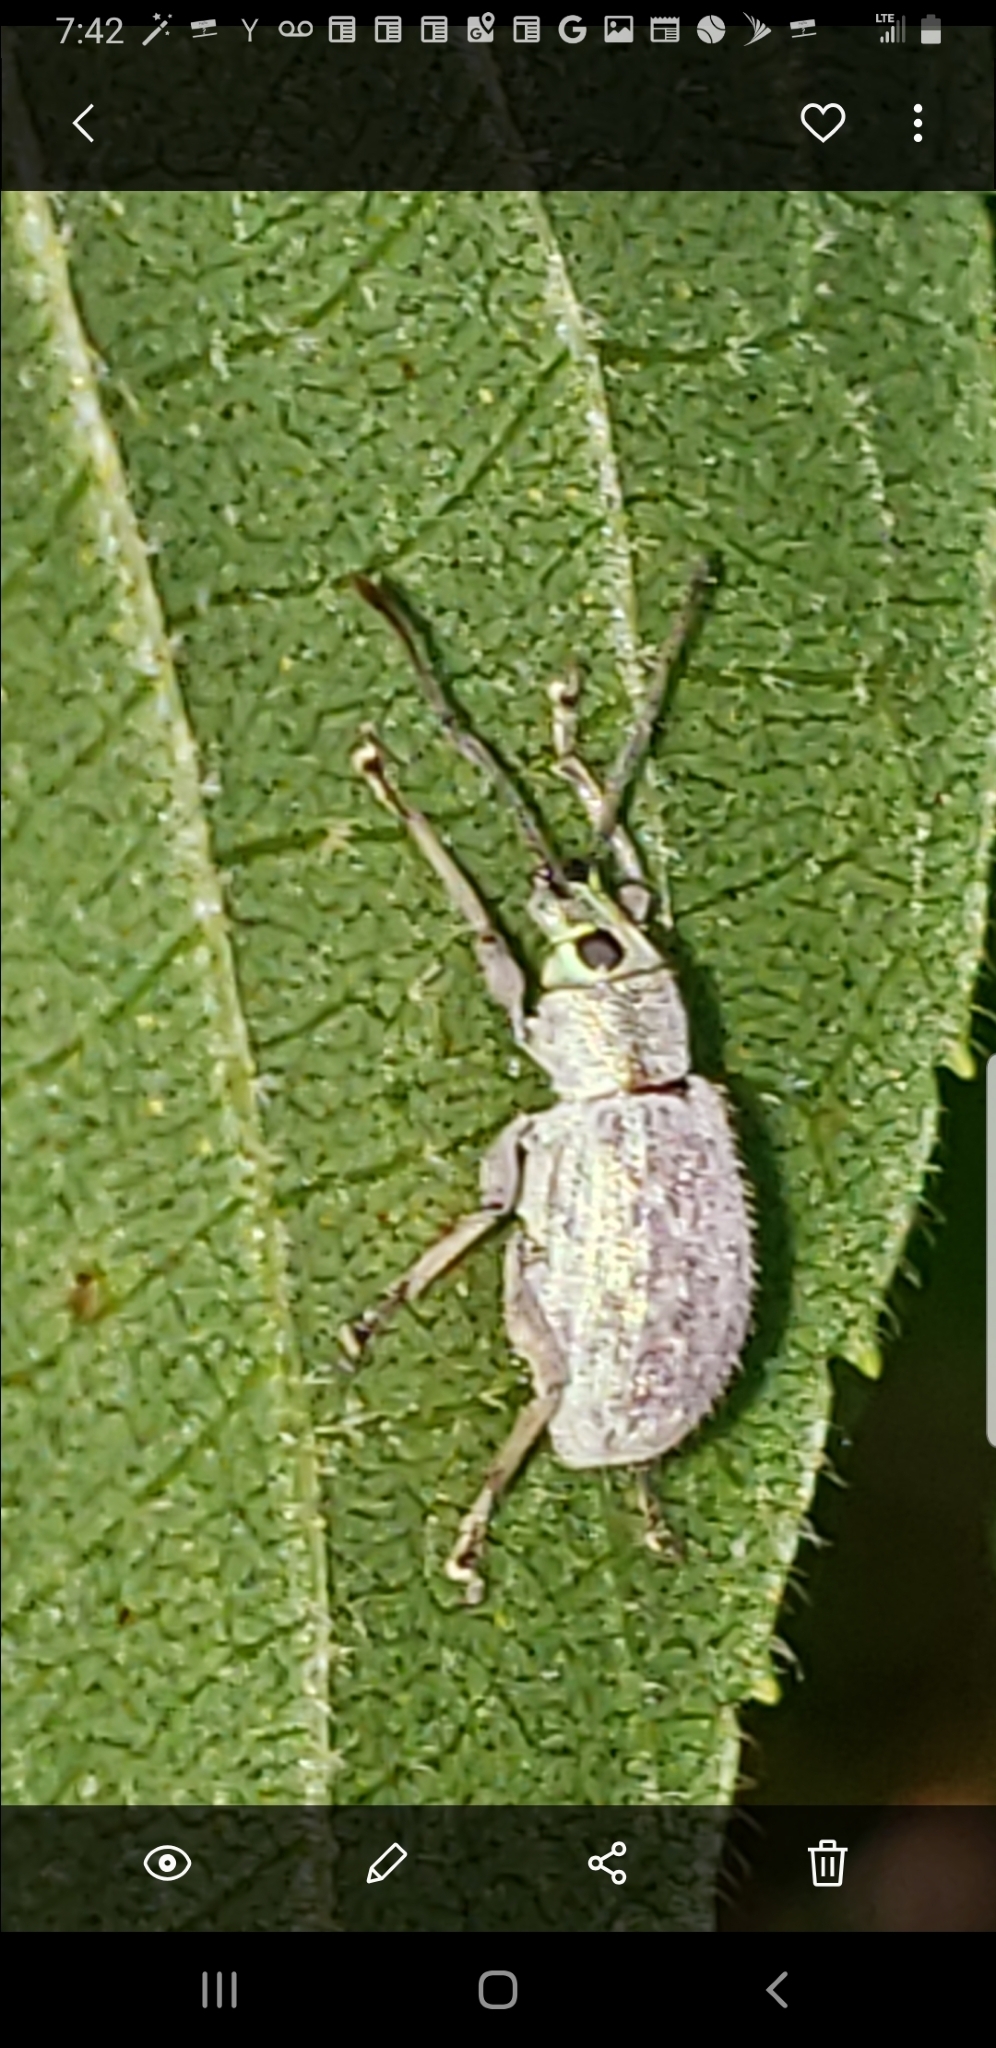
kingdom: Animalia
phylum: Arthropoda
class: Insecta
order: Coleoptera
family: Curculionidae
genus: Cyrtepistomus
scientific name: Cyrtepistomus castaneus
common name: Weevil
